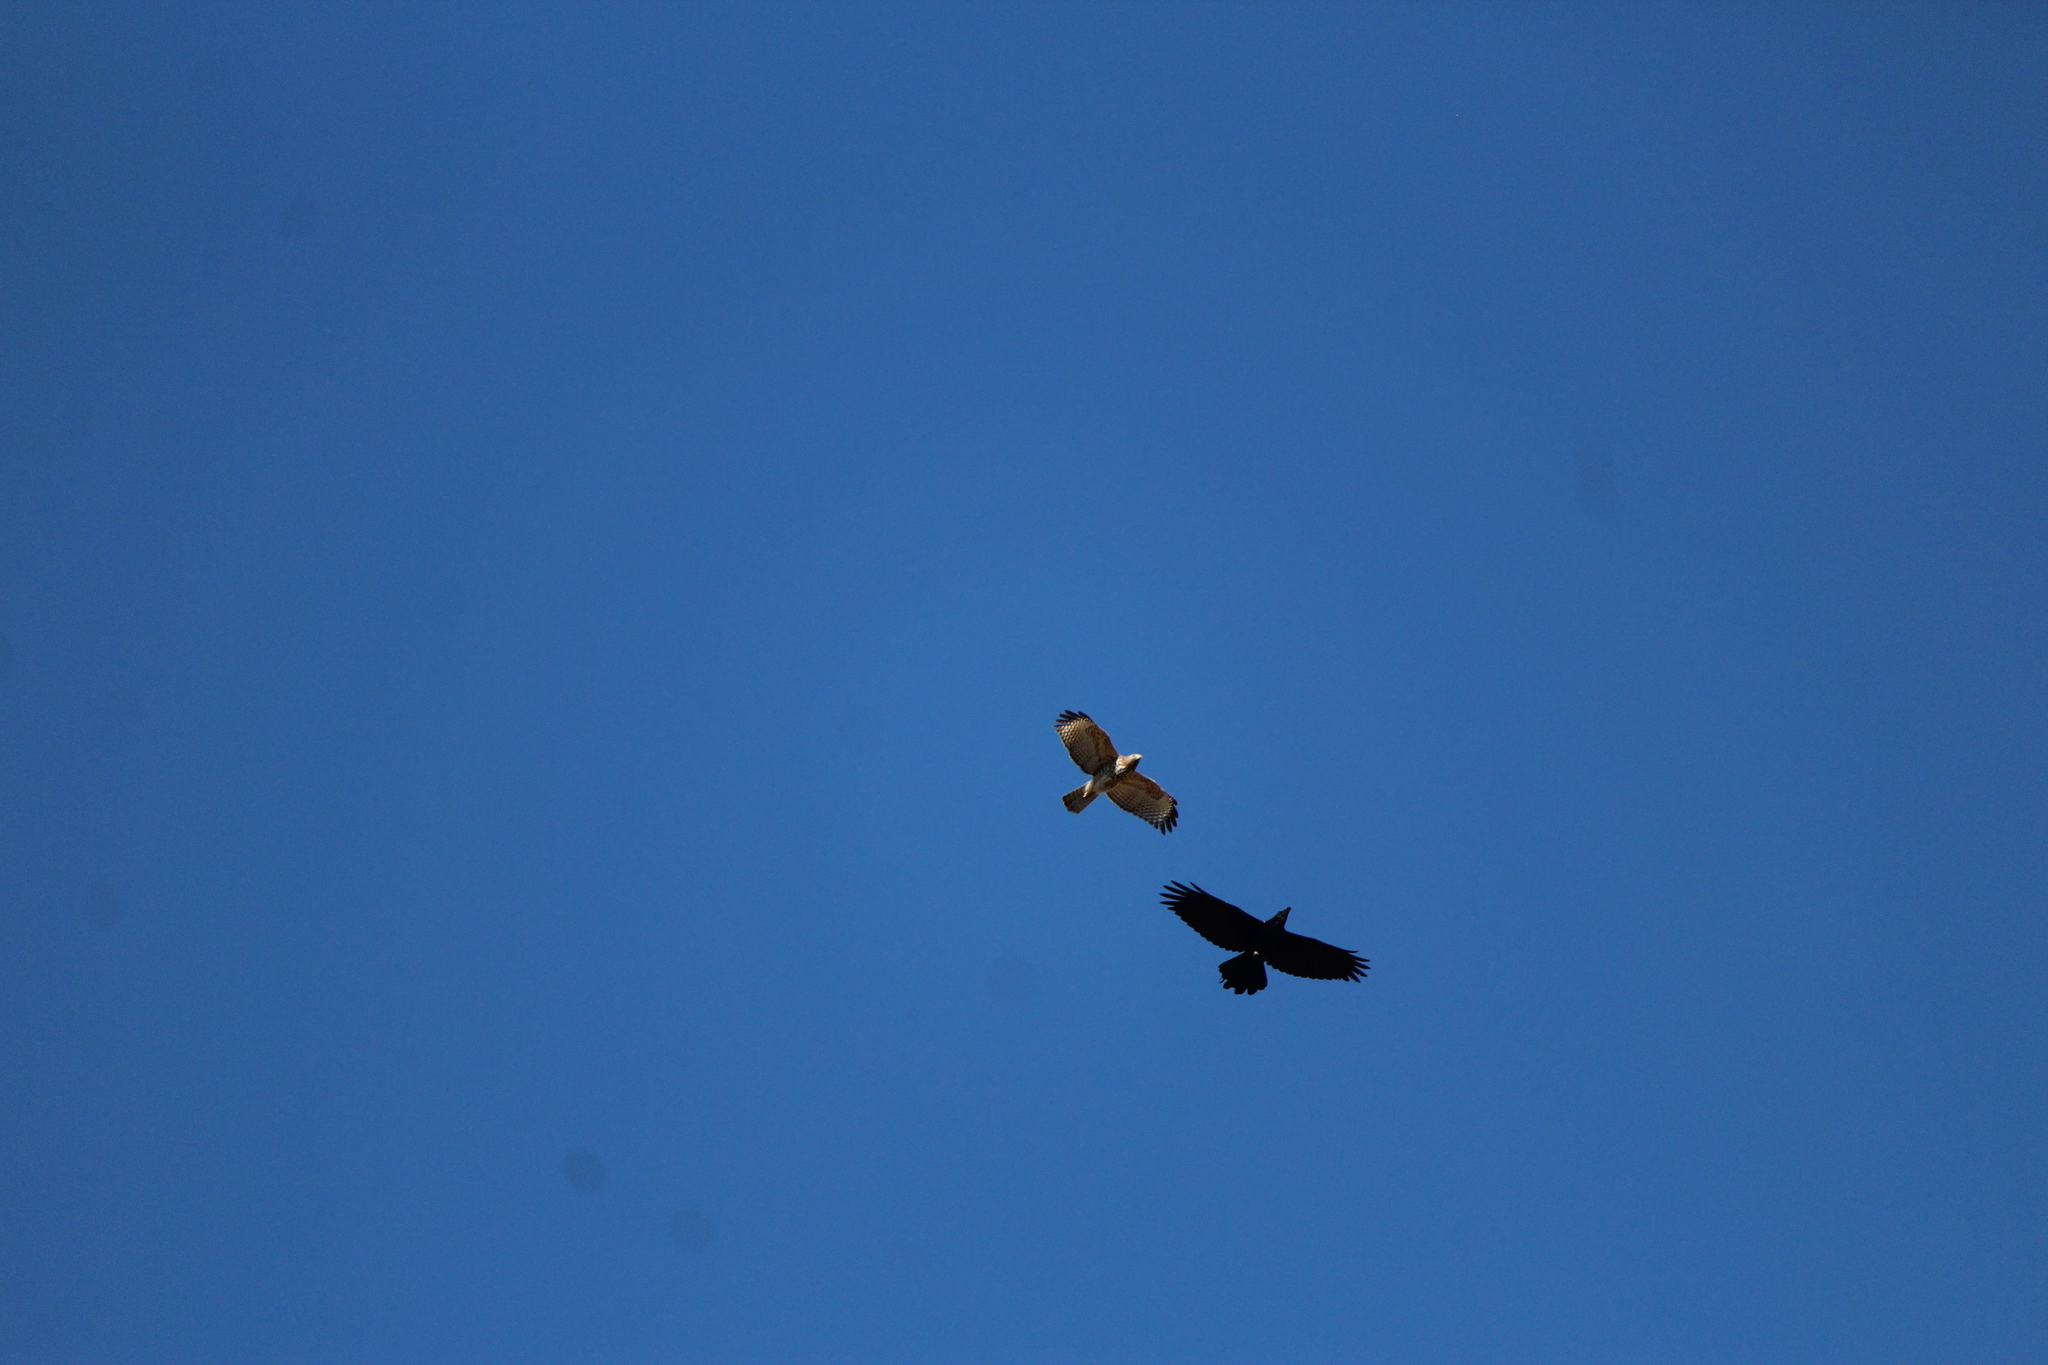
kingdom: Animalia
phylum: Chordata
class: Aves
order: Passeriformes
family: Corvidae
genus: Corvus
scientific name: Corvus corax
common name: Common raven
